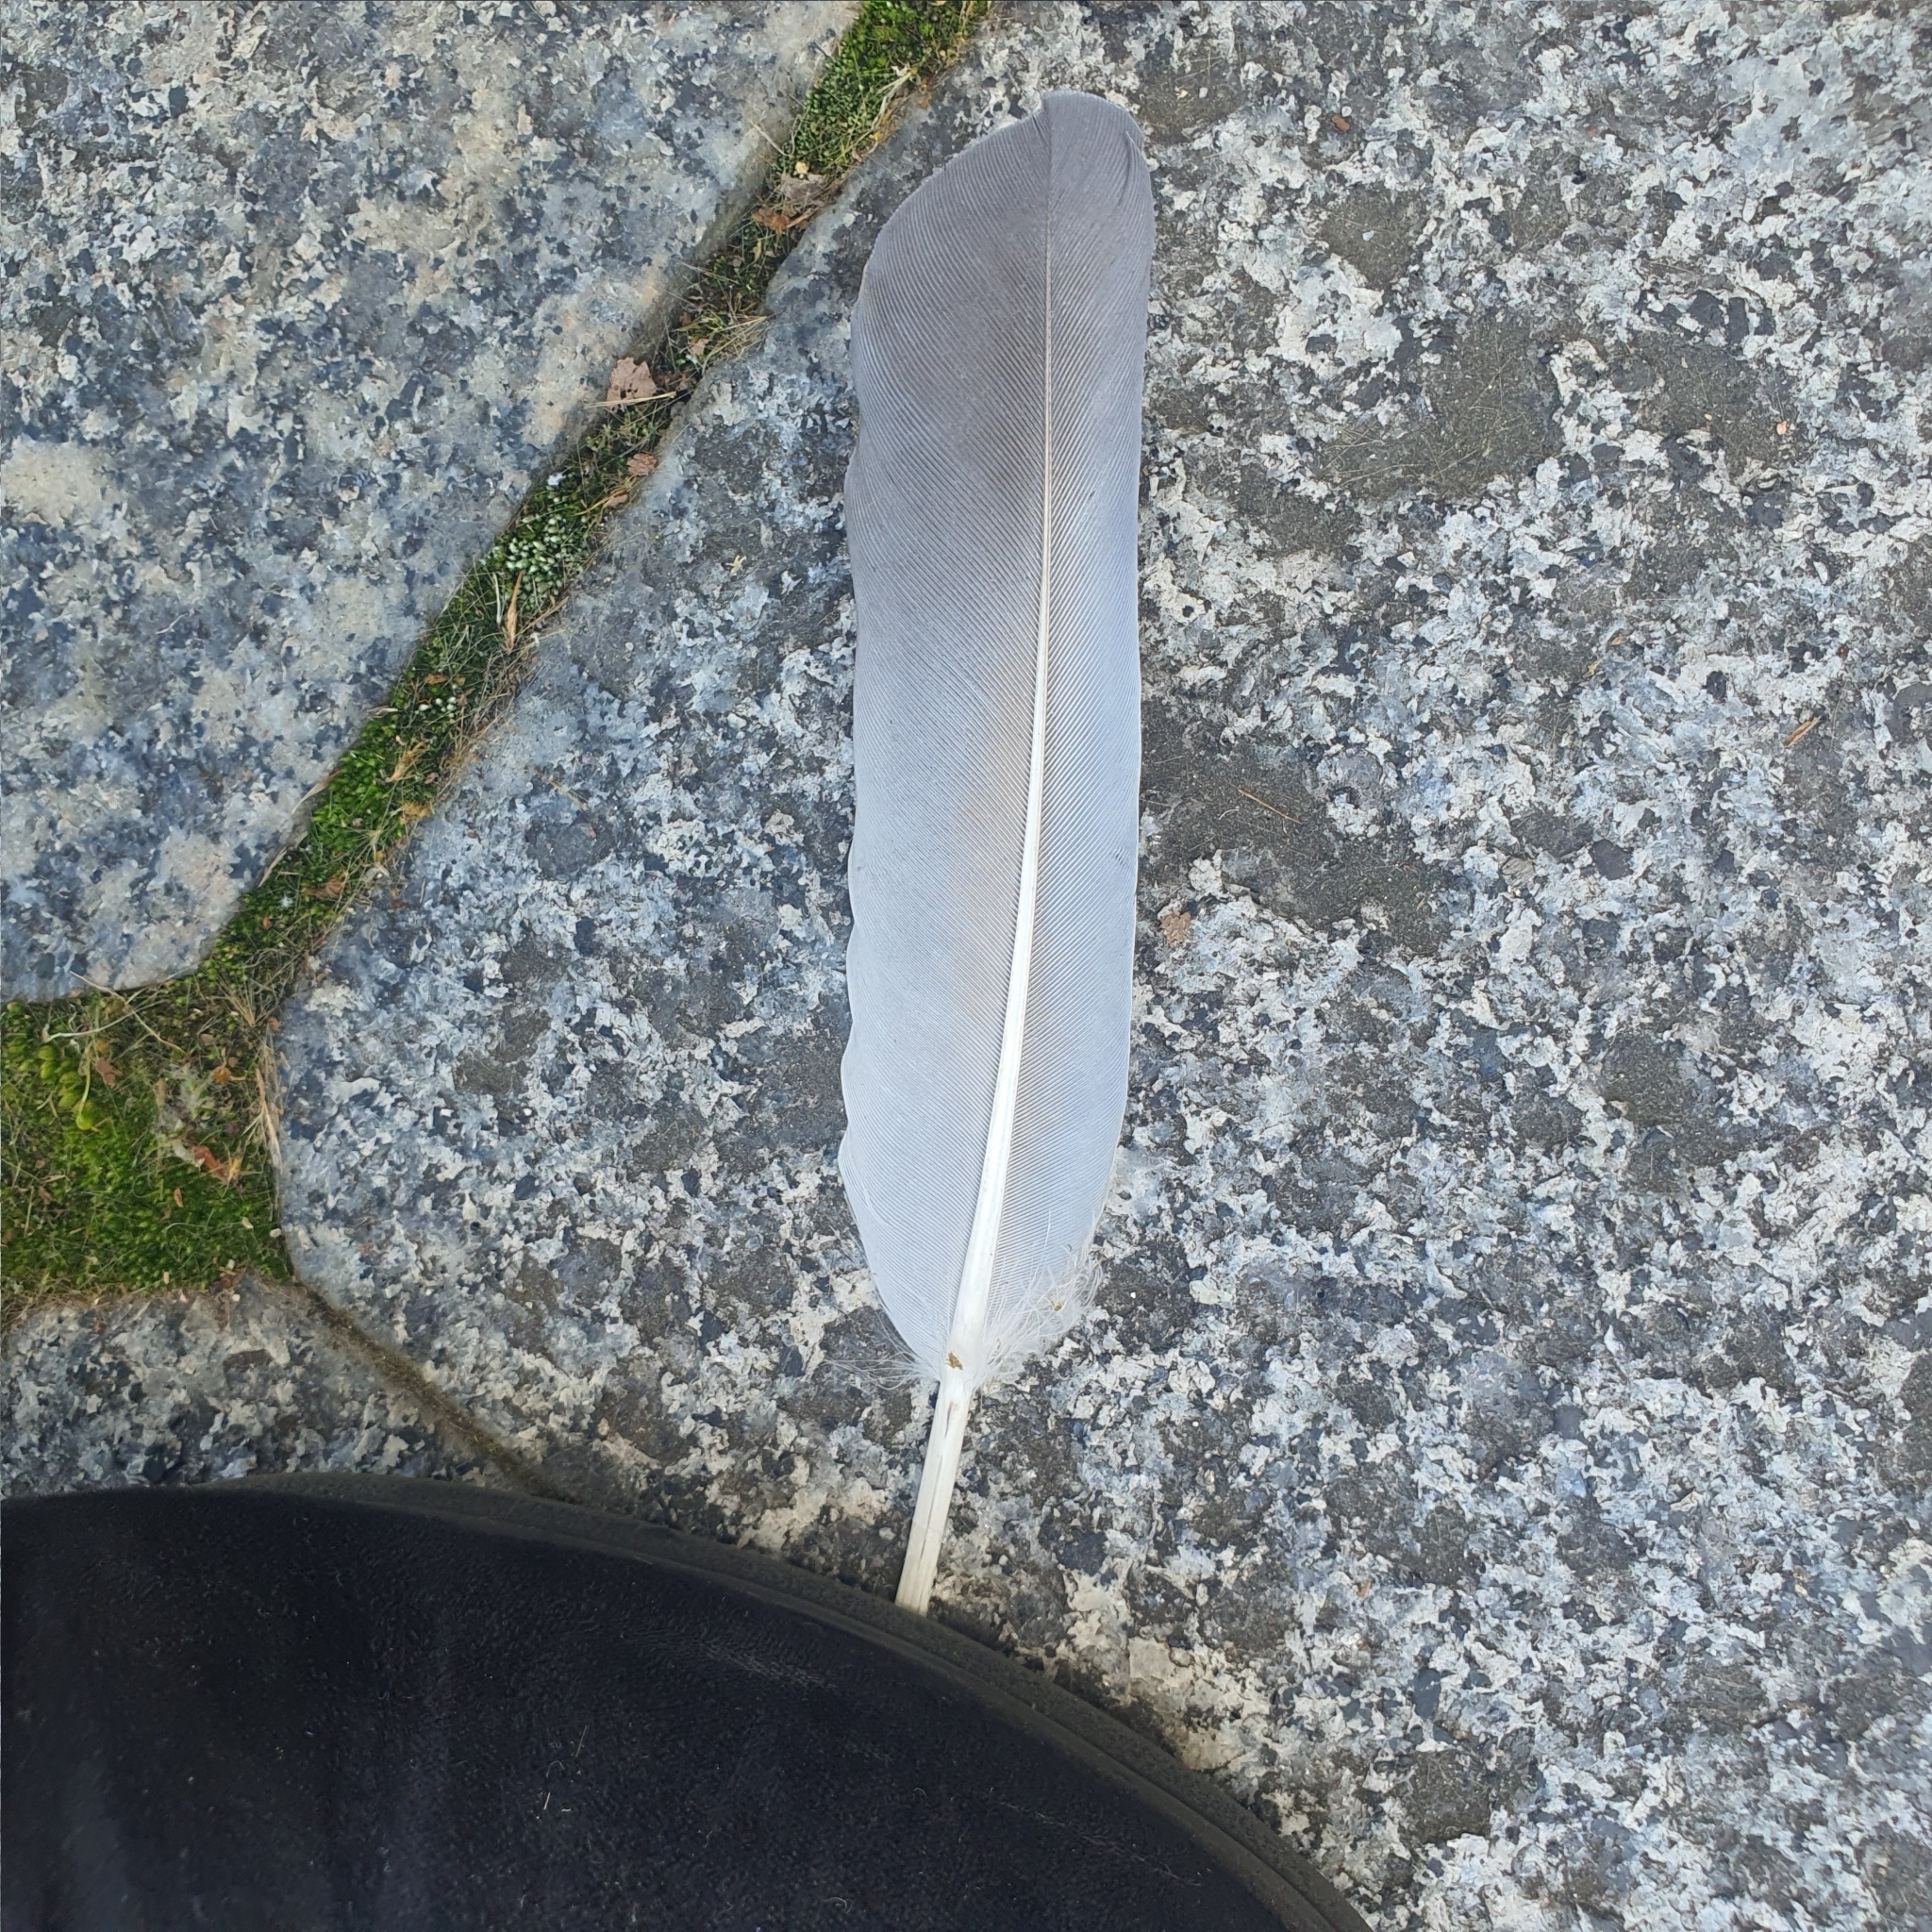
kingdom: Animalia
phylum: Chordata
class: Aves
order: Columbiformes
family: Columbidae
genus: Columba
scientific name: Columba livia
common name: Rock pigeon
